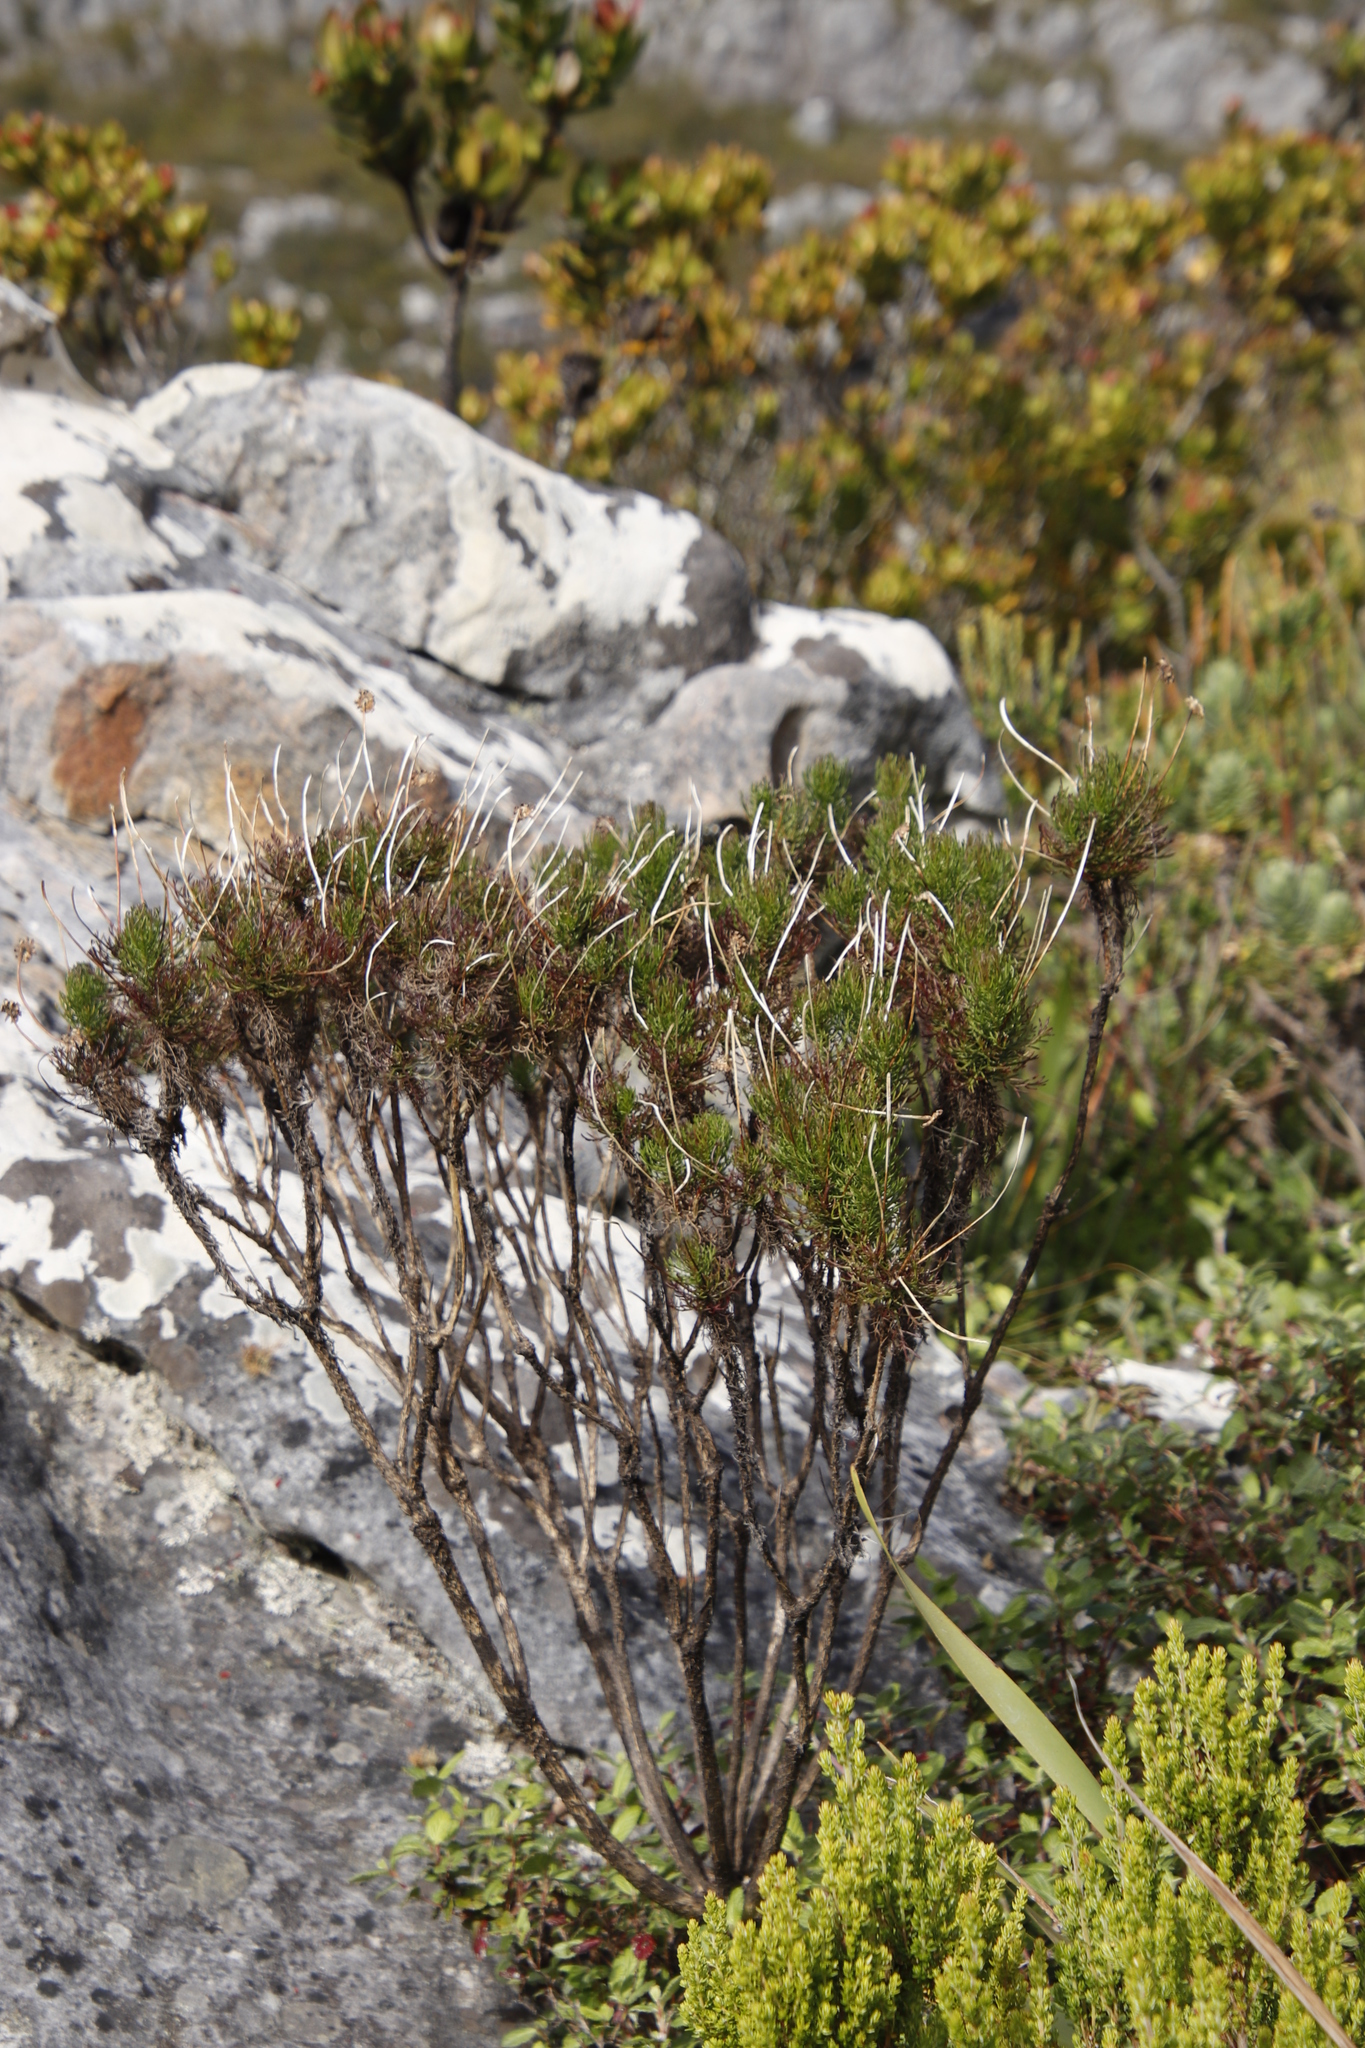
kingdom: Plantae
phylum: Tracheophyta
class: Magnoliopsida
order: Asterales
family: Asteraceae
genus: Euryops
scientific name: Euryops abrotanifolius
